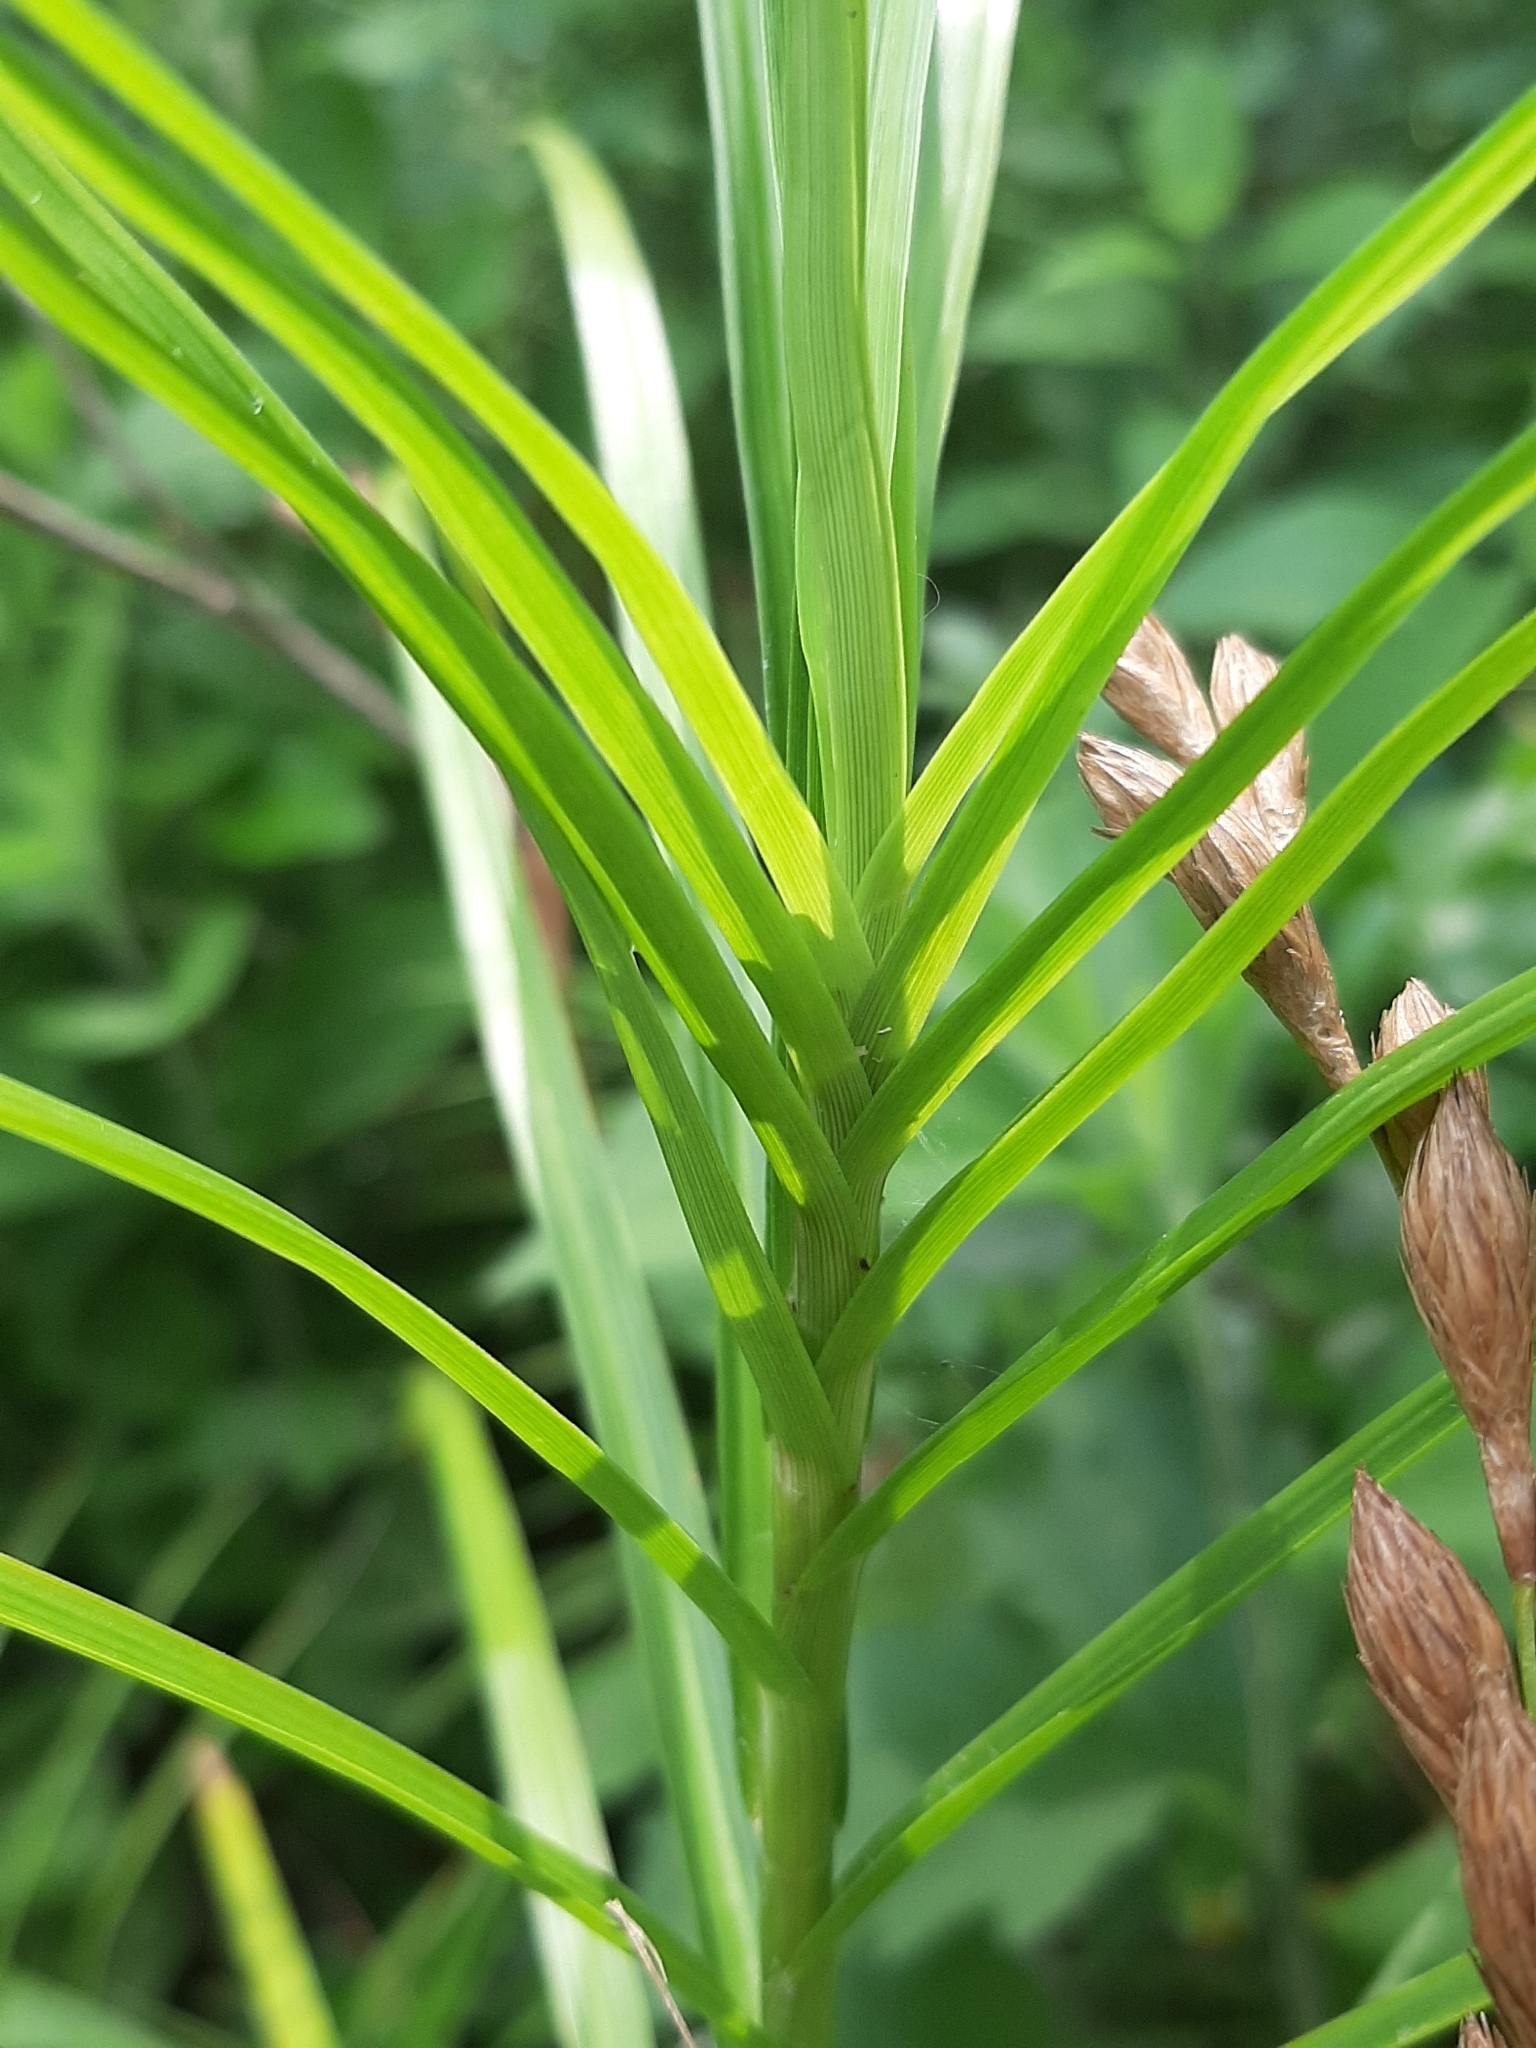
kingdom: Plantae
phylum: Tracheophyta
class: Liliopsida
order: Poales
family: Cyperaceae
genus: Carex
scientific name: Carex muskingumensis
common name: Muskingum sedge
